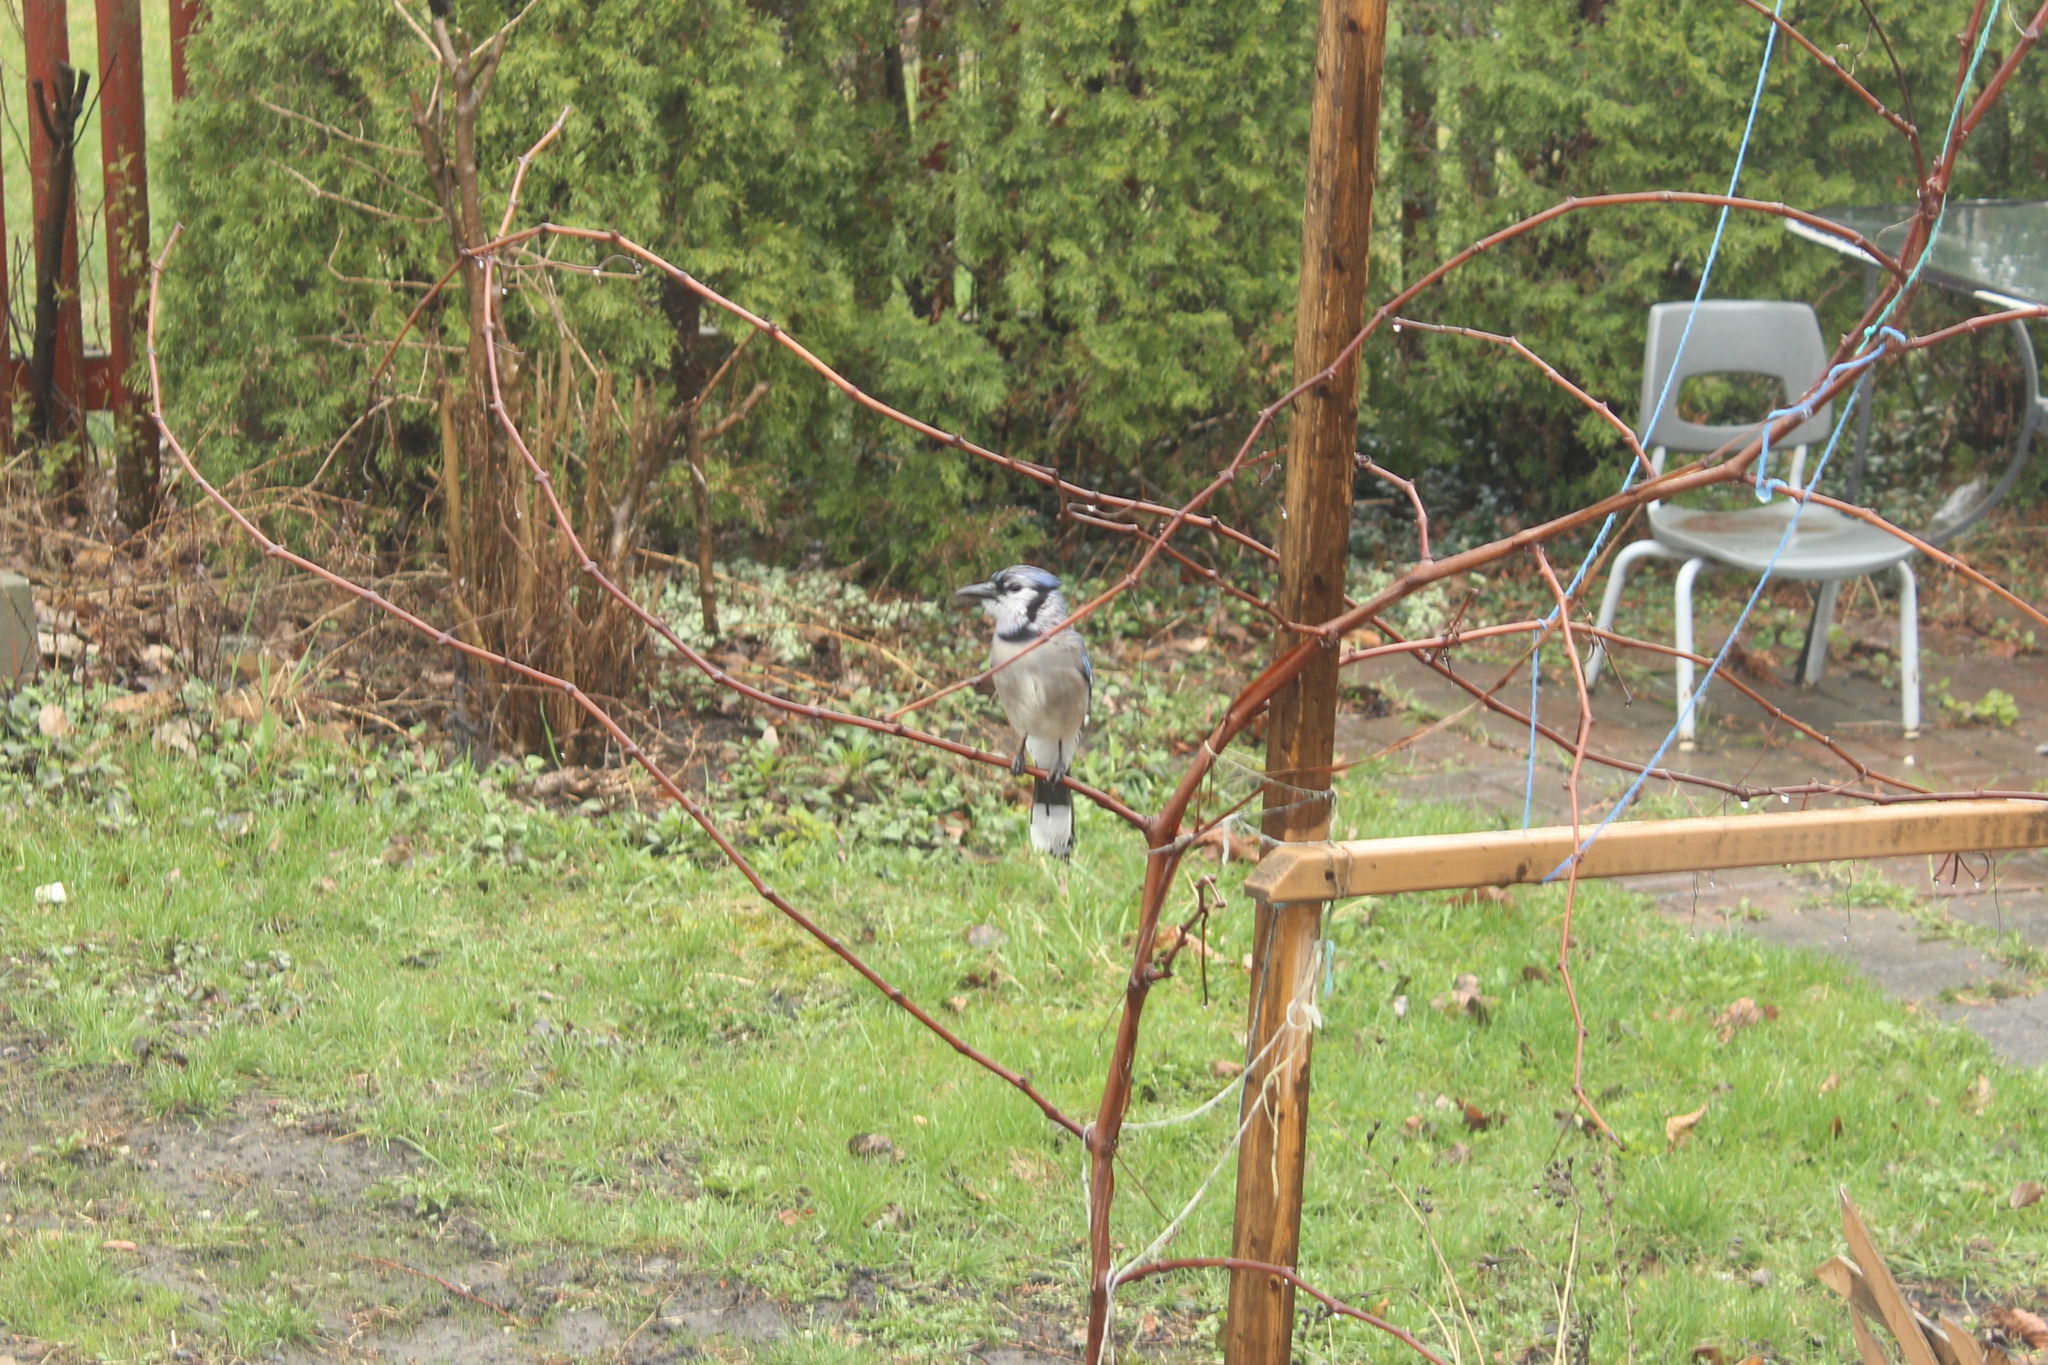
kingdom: Animalia
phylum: Chordata
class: Aves
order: Passeriformes
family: Corvidae
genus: Cyanocitta
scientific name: Cyanocitta cristata
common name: Blue jay
